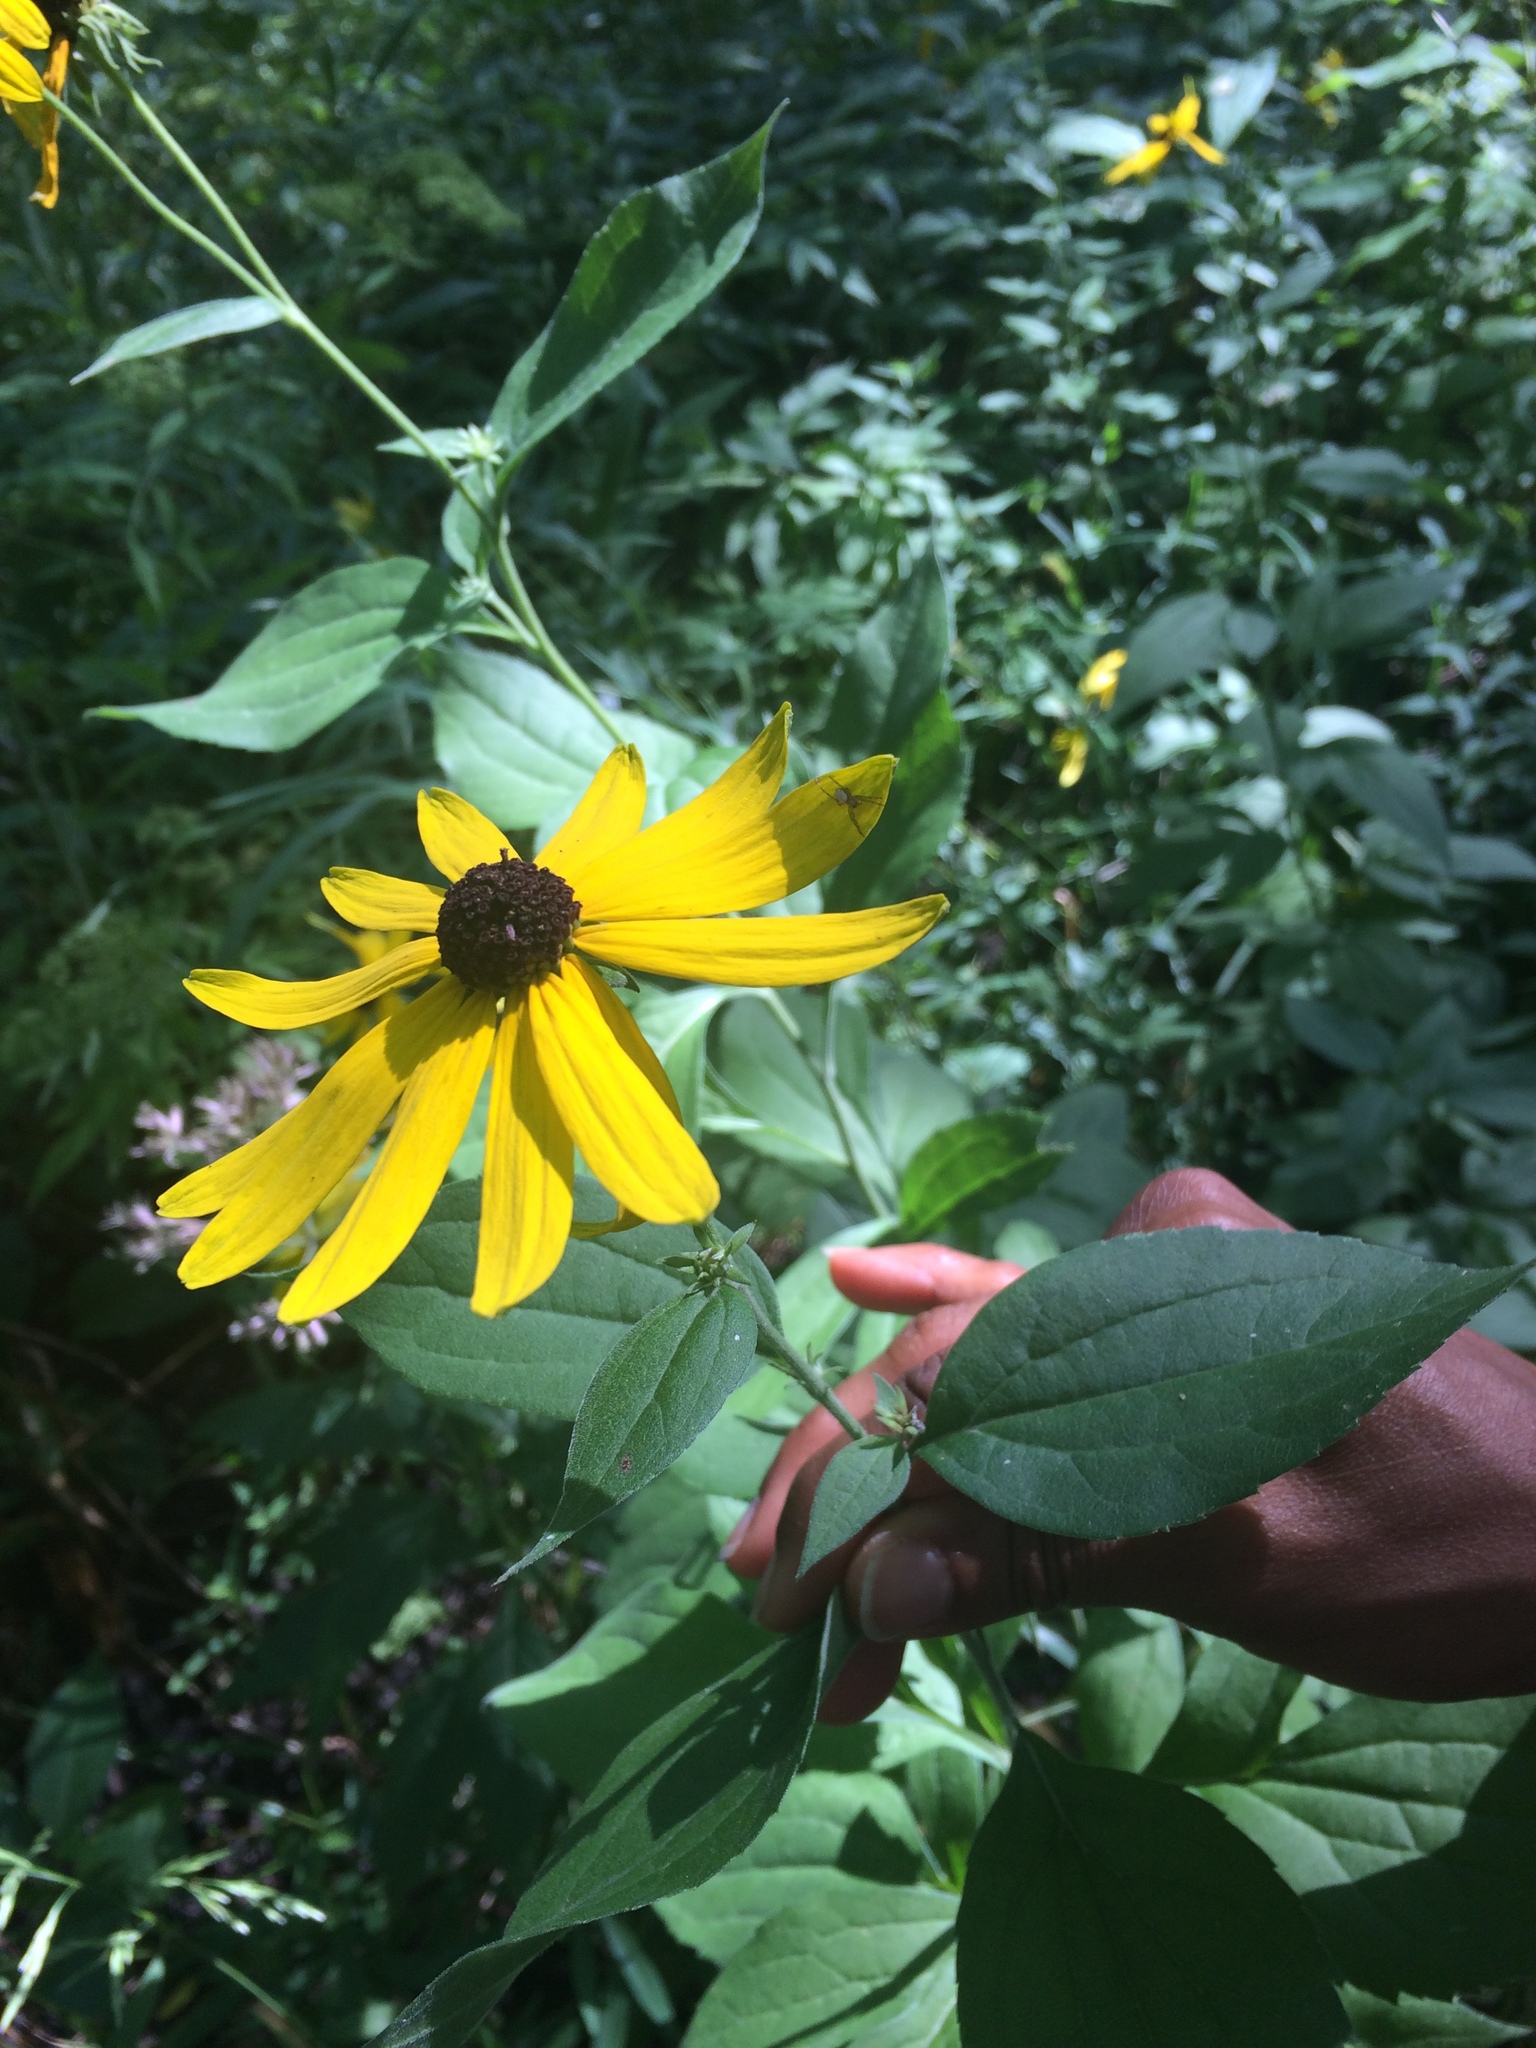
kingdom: Plantae
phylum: Tracheophyta
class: Magnoliopsida
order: Asterales
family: Asteraceae
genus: Rudbeckia
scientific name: Rudbeckia subtomentosa
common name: Sweet coneflower
